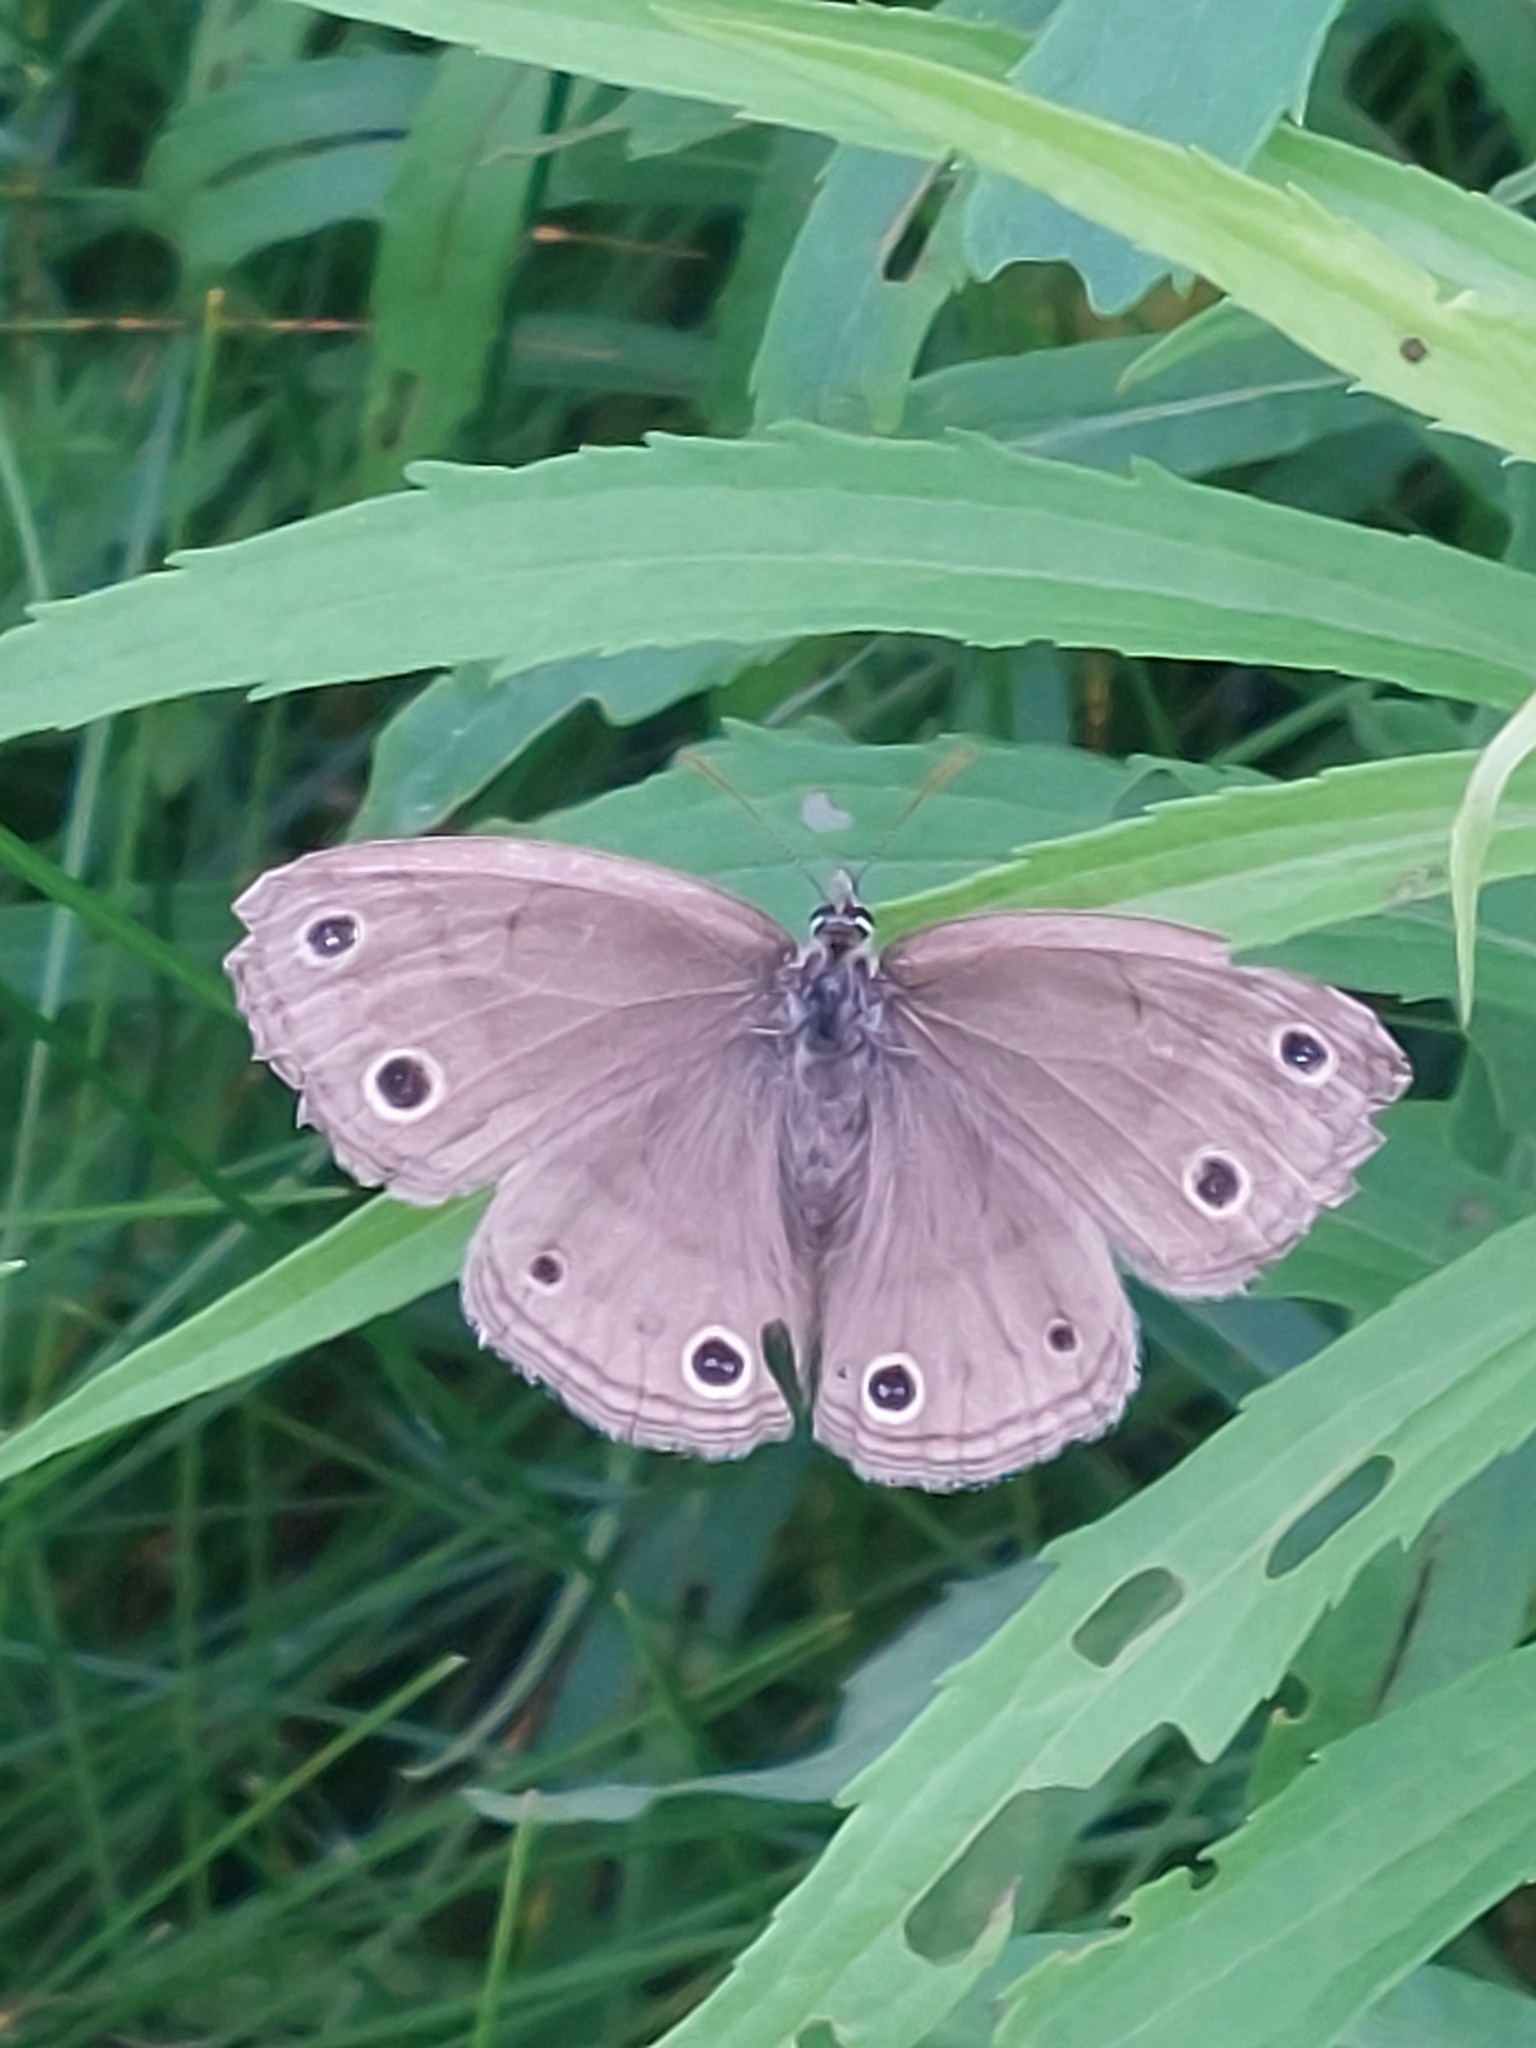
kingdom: Animalia
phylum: Arthropoda
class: Insecta
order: Lepidoptera
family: Nymphalidae
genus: Euptychia
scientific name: Euptychia cymela
